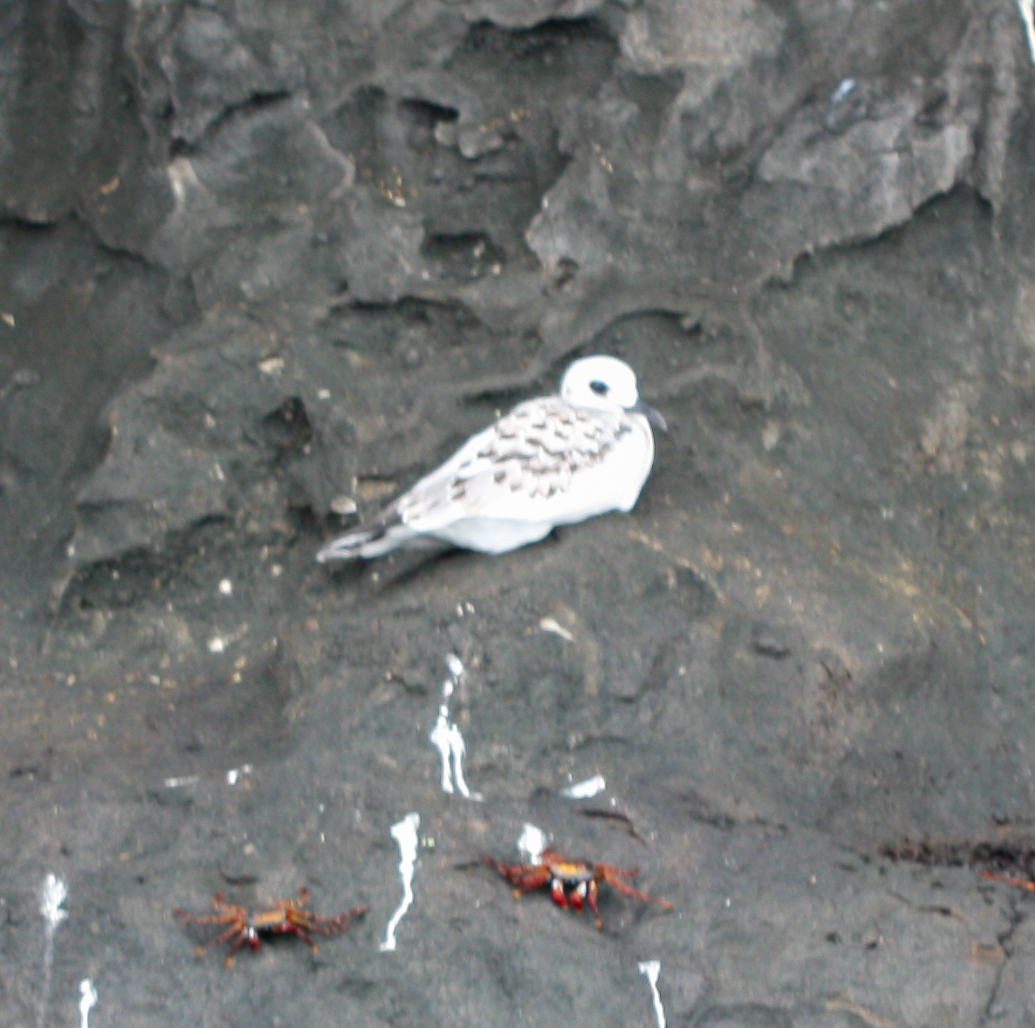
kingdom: Animalia
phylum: Chordata
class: Aves
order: Charadriiformes
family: Laridae
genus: Creagrus
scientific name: Creagrus furcatus
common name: Swallow-tailed gull
